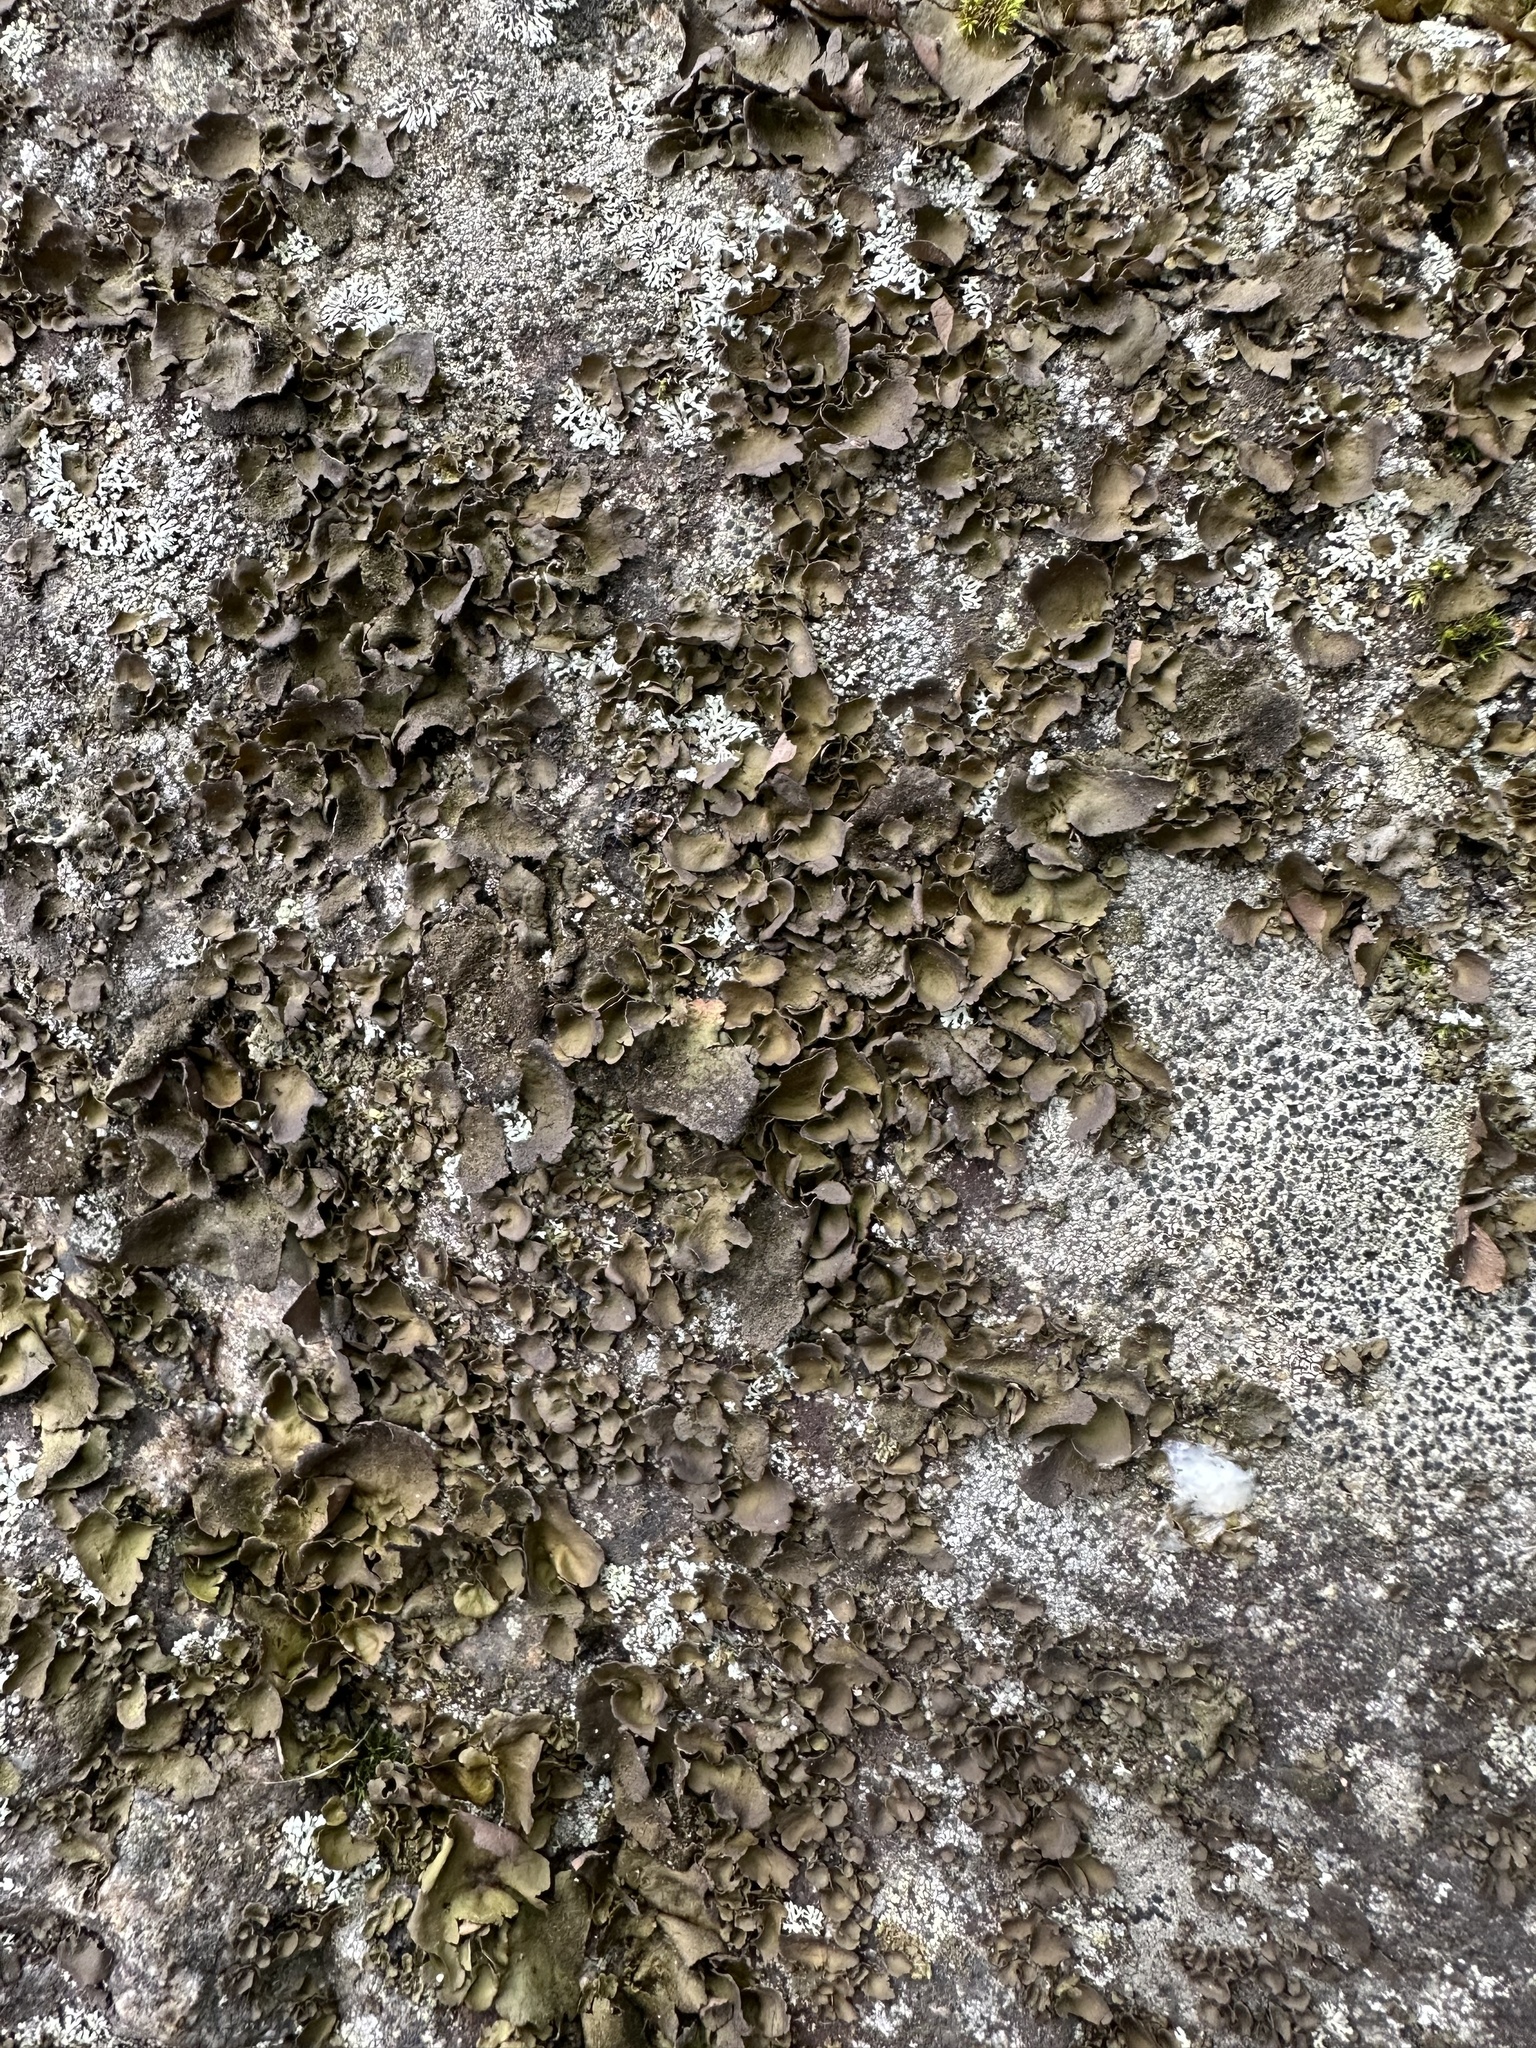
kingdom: Fungi
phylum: Ascomycota
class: Lecanoromycetes
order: Umbilicariales
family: Umbilicariaceae
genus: Umbilicaria
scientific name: Umbilicaria deusta
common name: Peppered rock tripe
